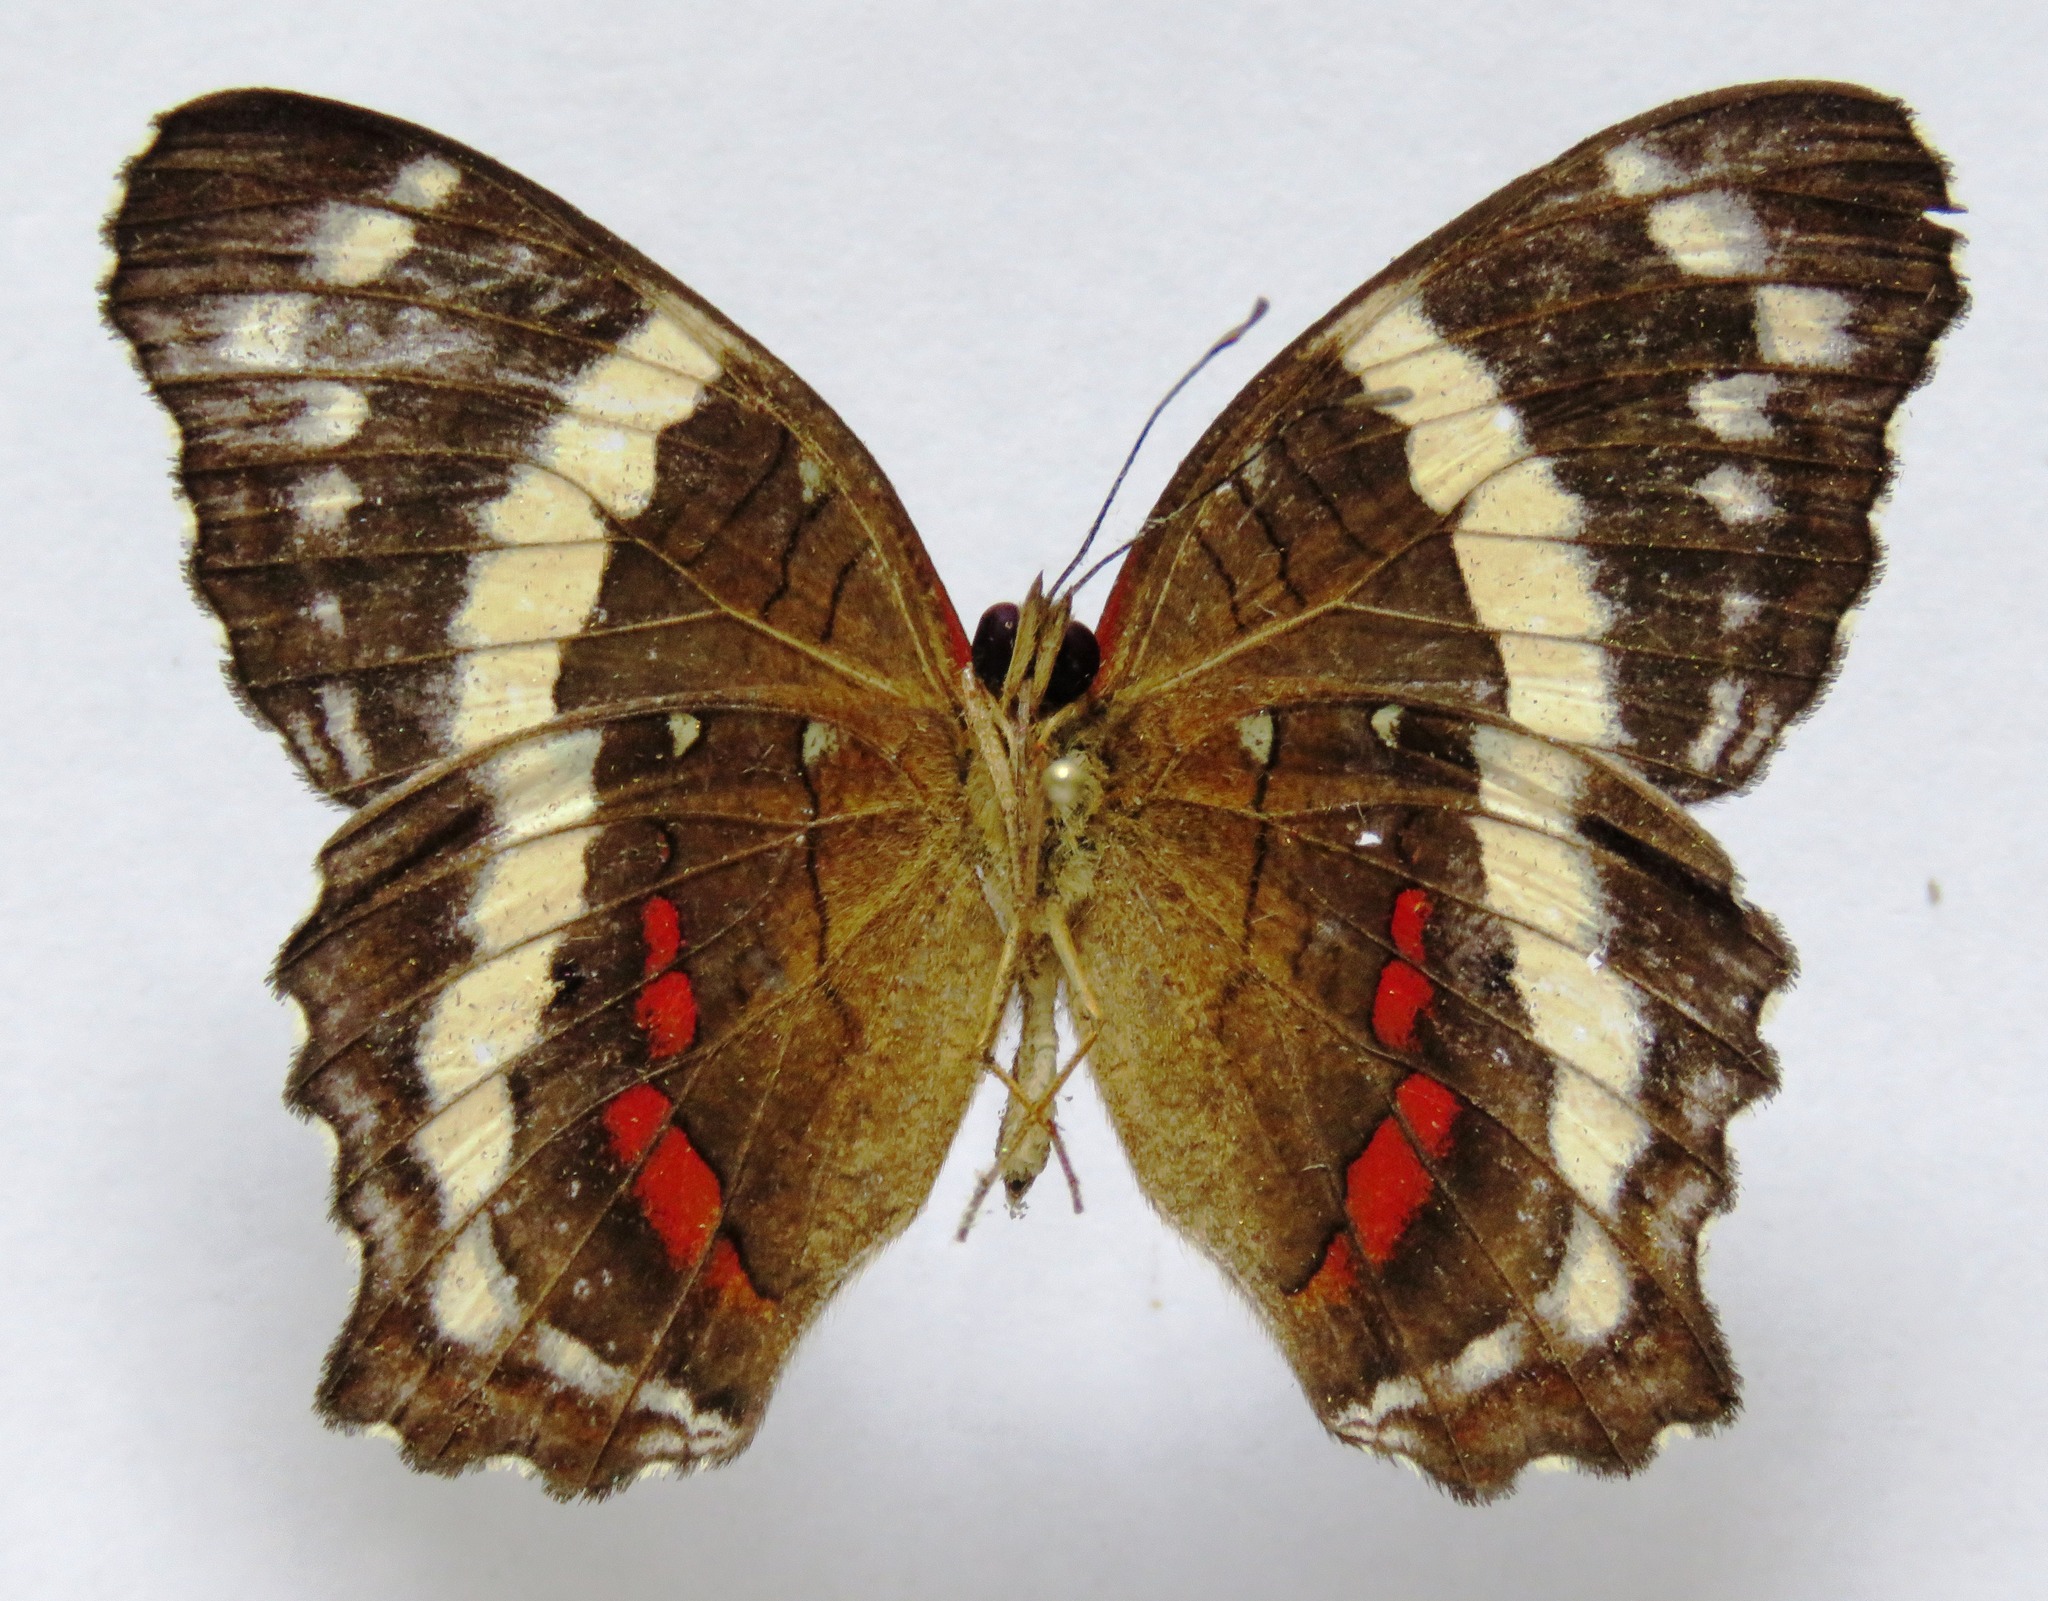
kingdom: Animalia
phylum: Arthropoda
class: Insecta
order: Lepidoptera
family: Nymphalidae
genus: Anartia
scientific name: Anartia fatima
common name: Banded peacock
